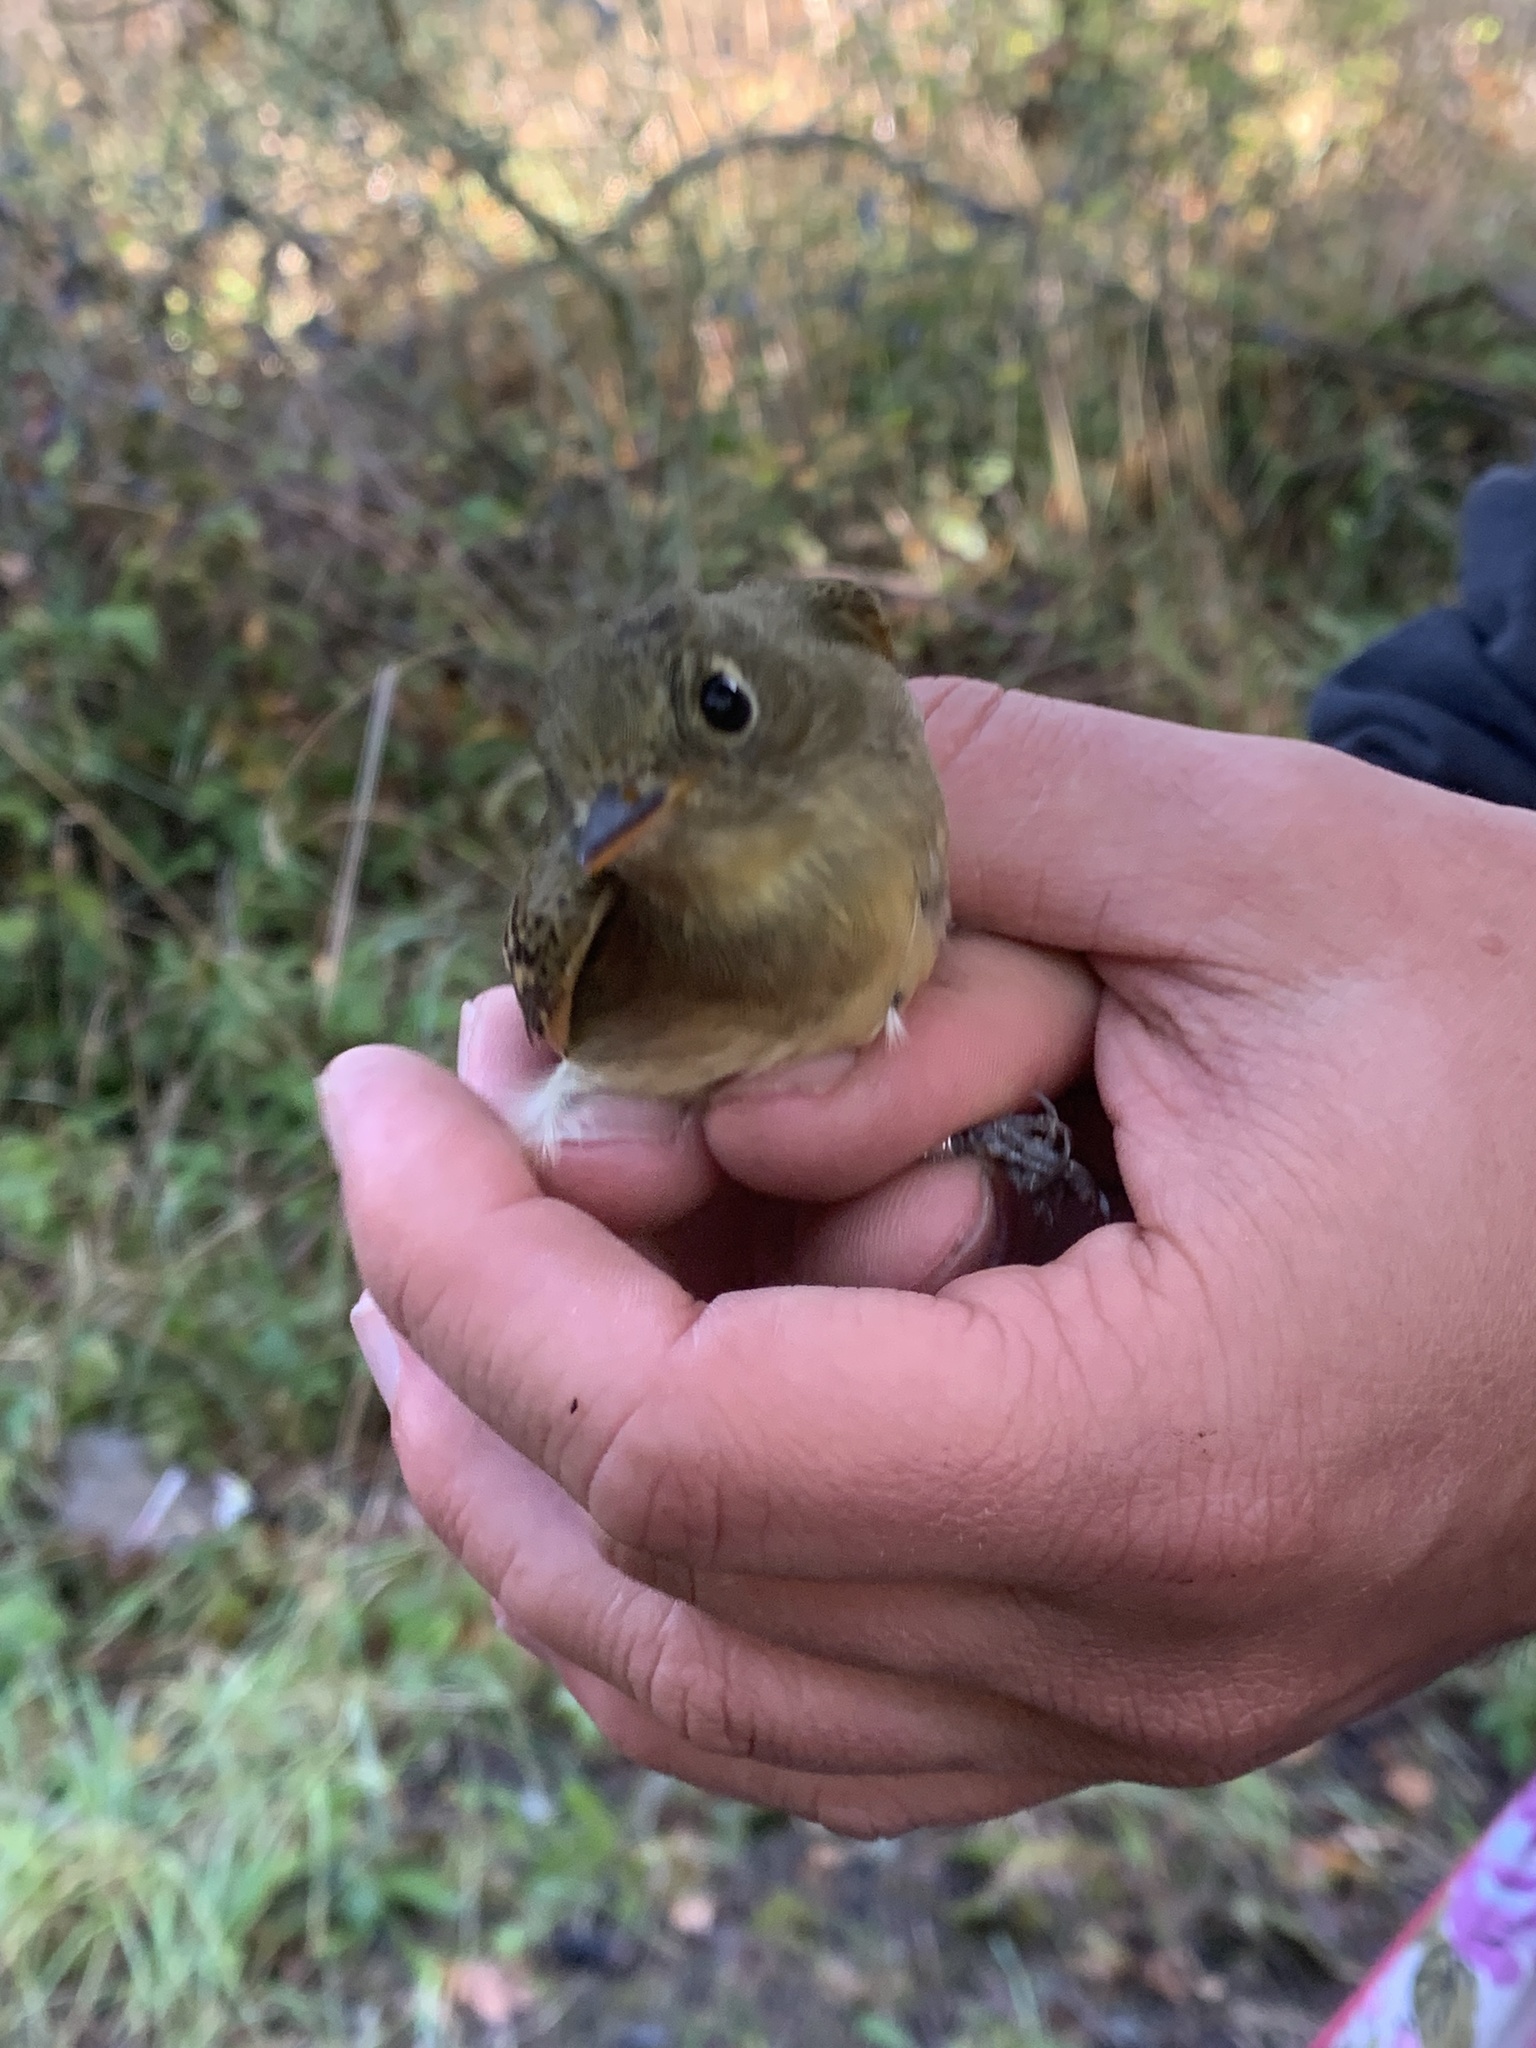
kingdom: Animalia
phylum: Chordata
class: Aves
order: Passeriformes
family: Tyrannidae
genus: Empidonax
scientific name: Empidonax difficilis
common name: Pacific-slope flycatcher
